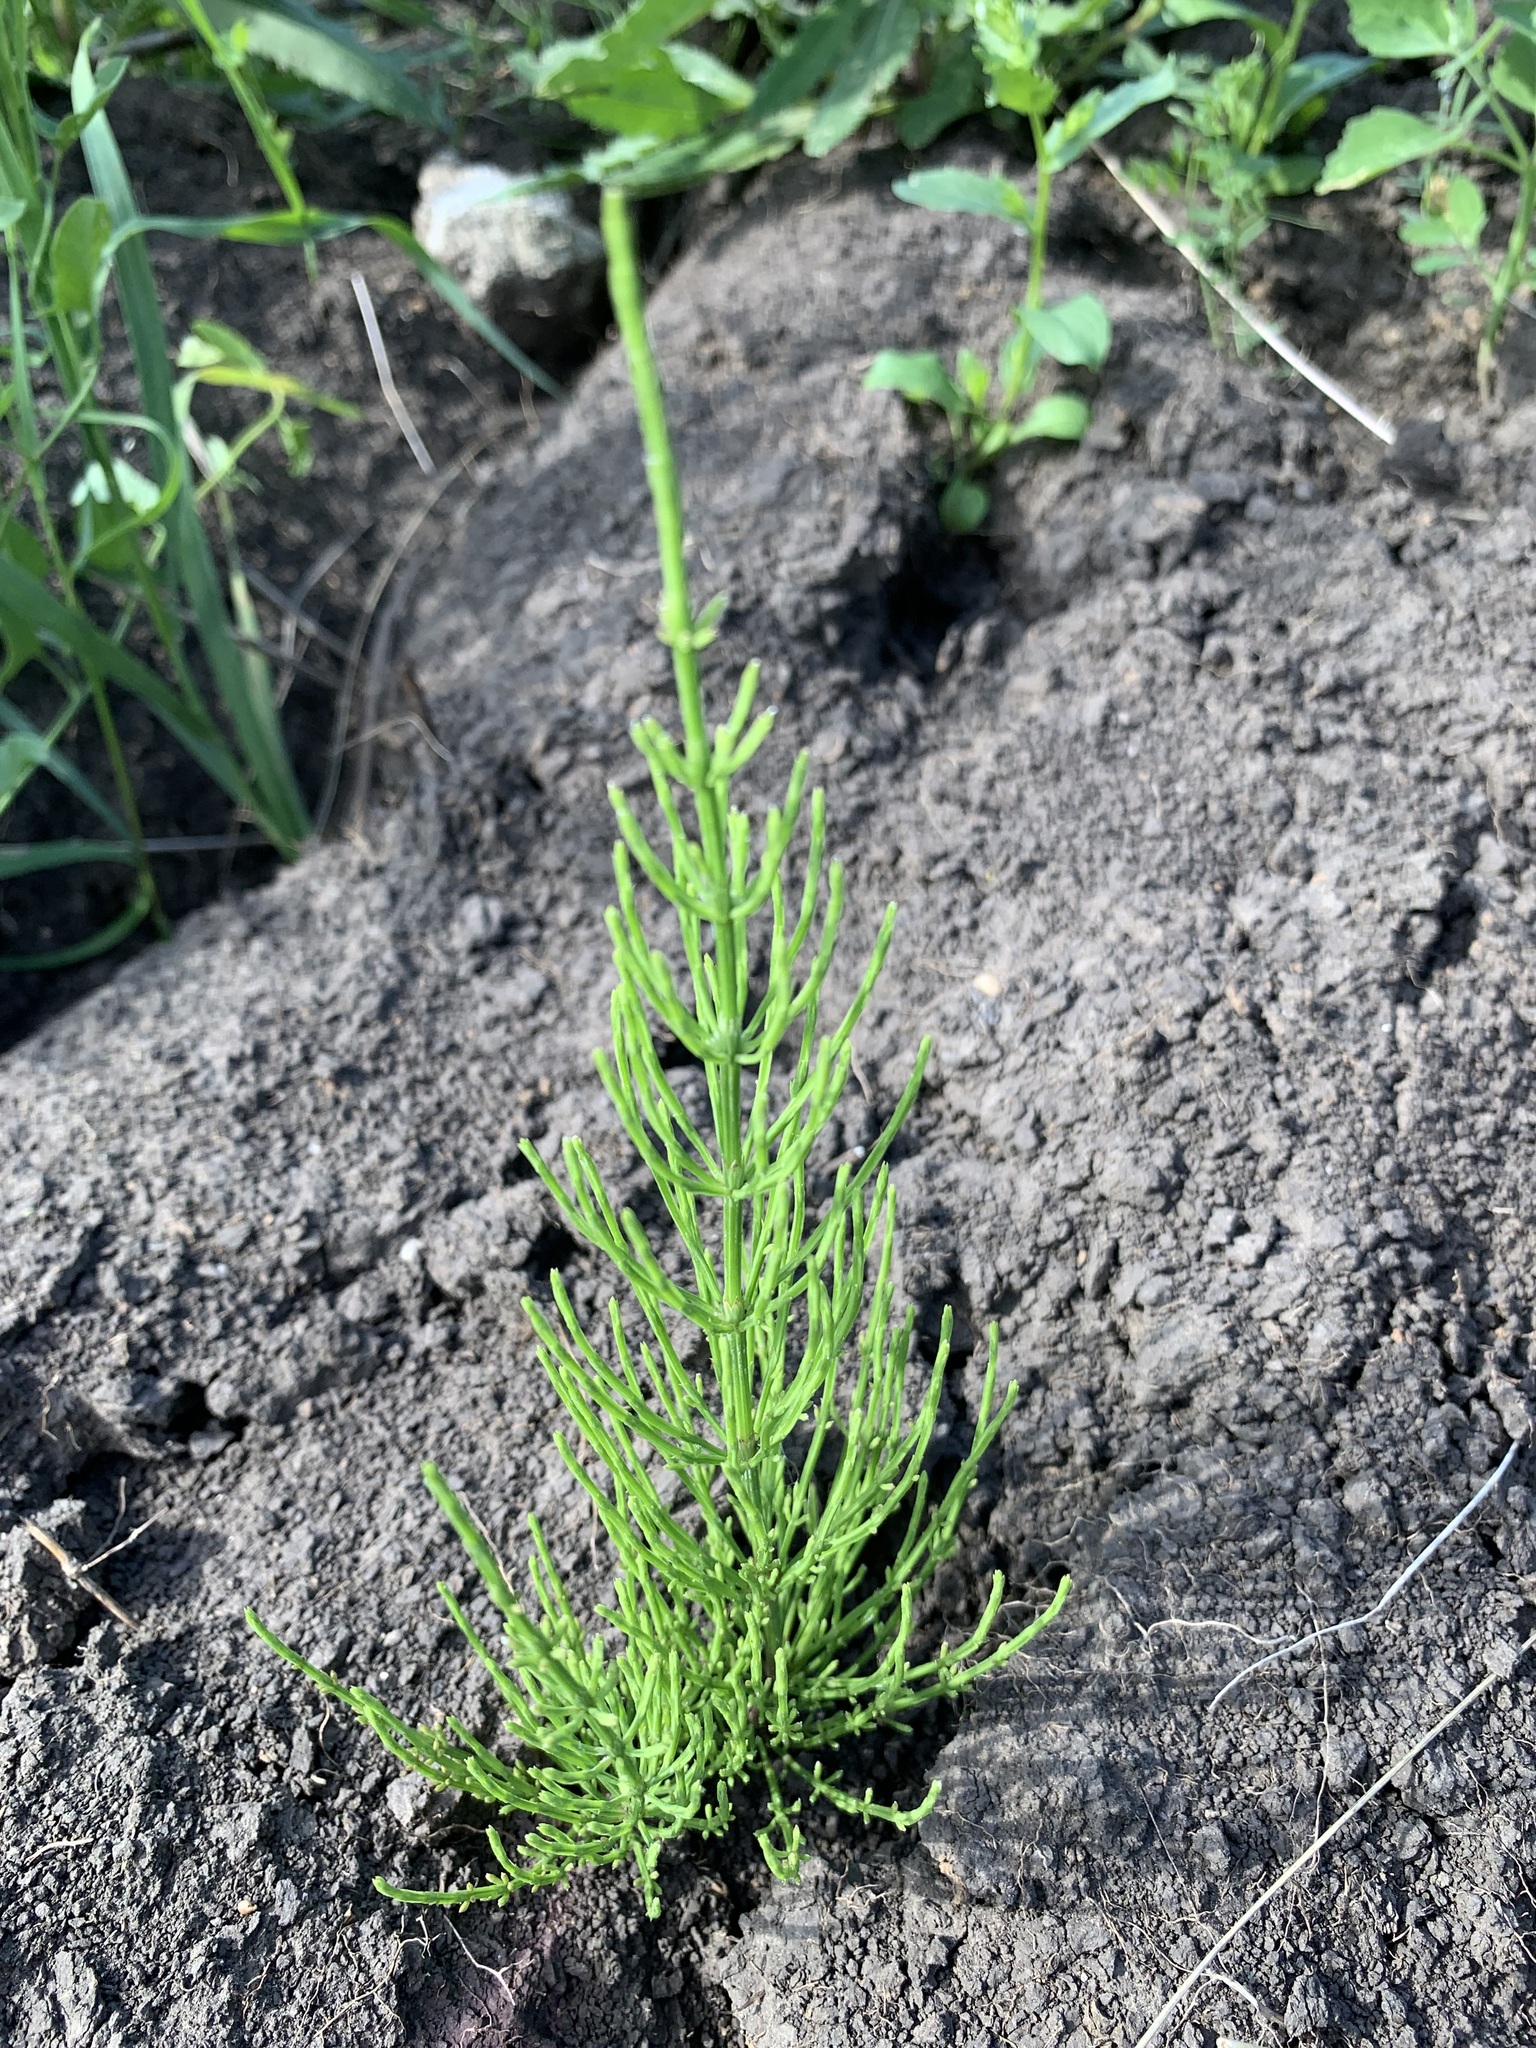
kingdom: Plantae
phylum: Tracheophyta
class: Polypodiopsida
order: Equisetales
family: Equisetaceae
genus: Equisetum
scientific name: Equisetum arvense
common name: Field horsetail
